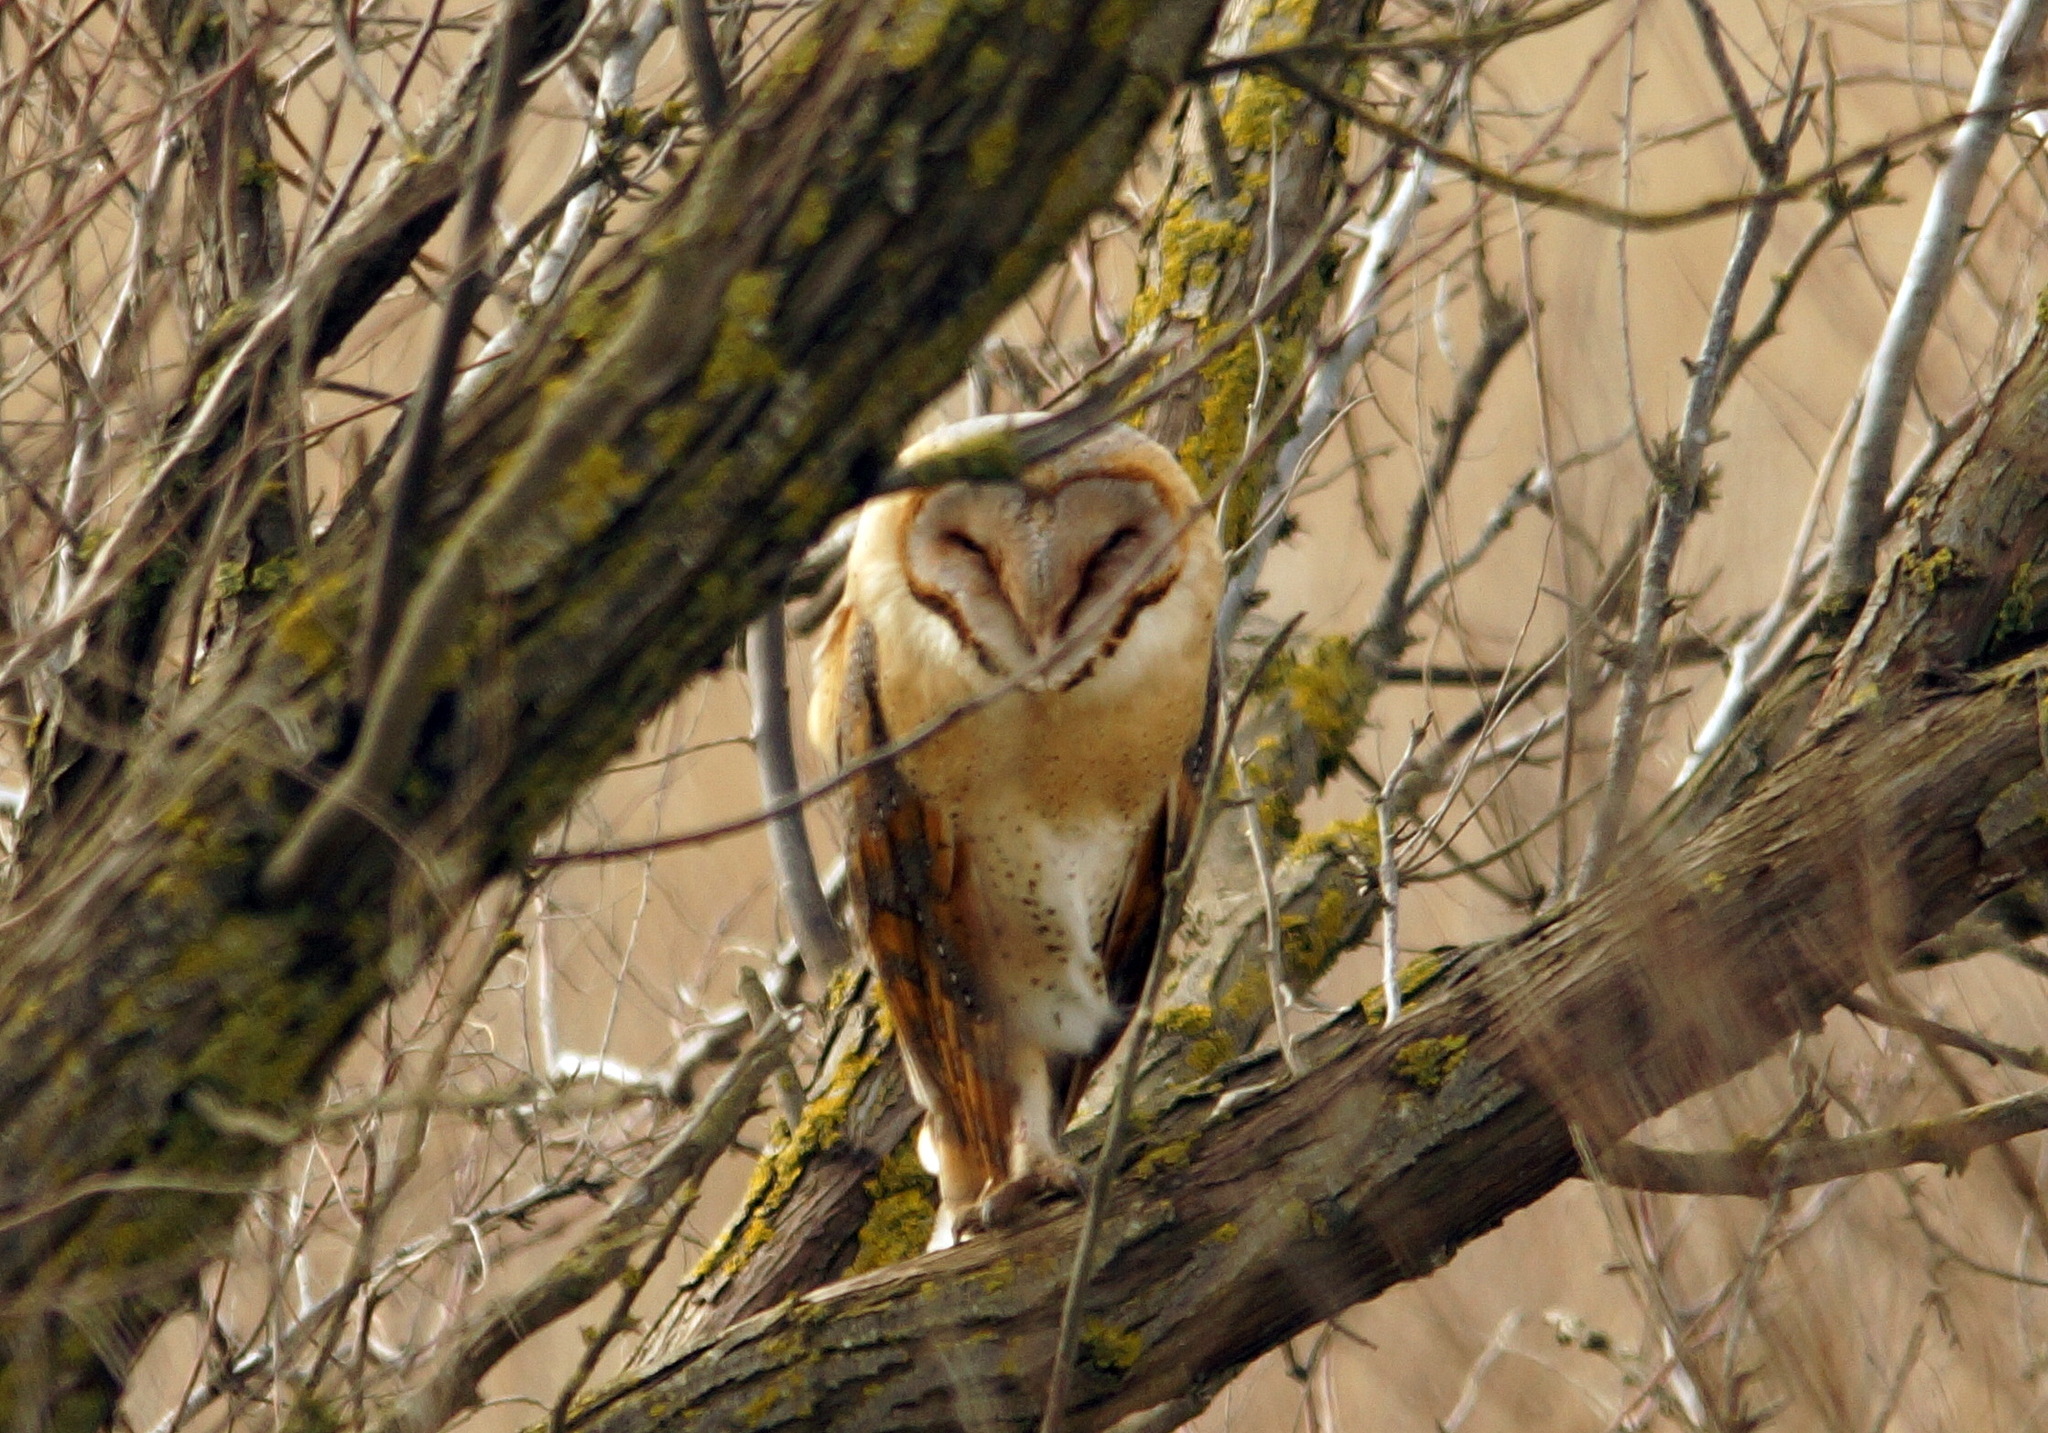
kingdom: Animalia
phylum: Chordata
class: Aves
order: Strigiformes
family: Tytonidae
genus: Tyto
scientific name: Tyto alba
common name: Barn owl
